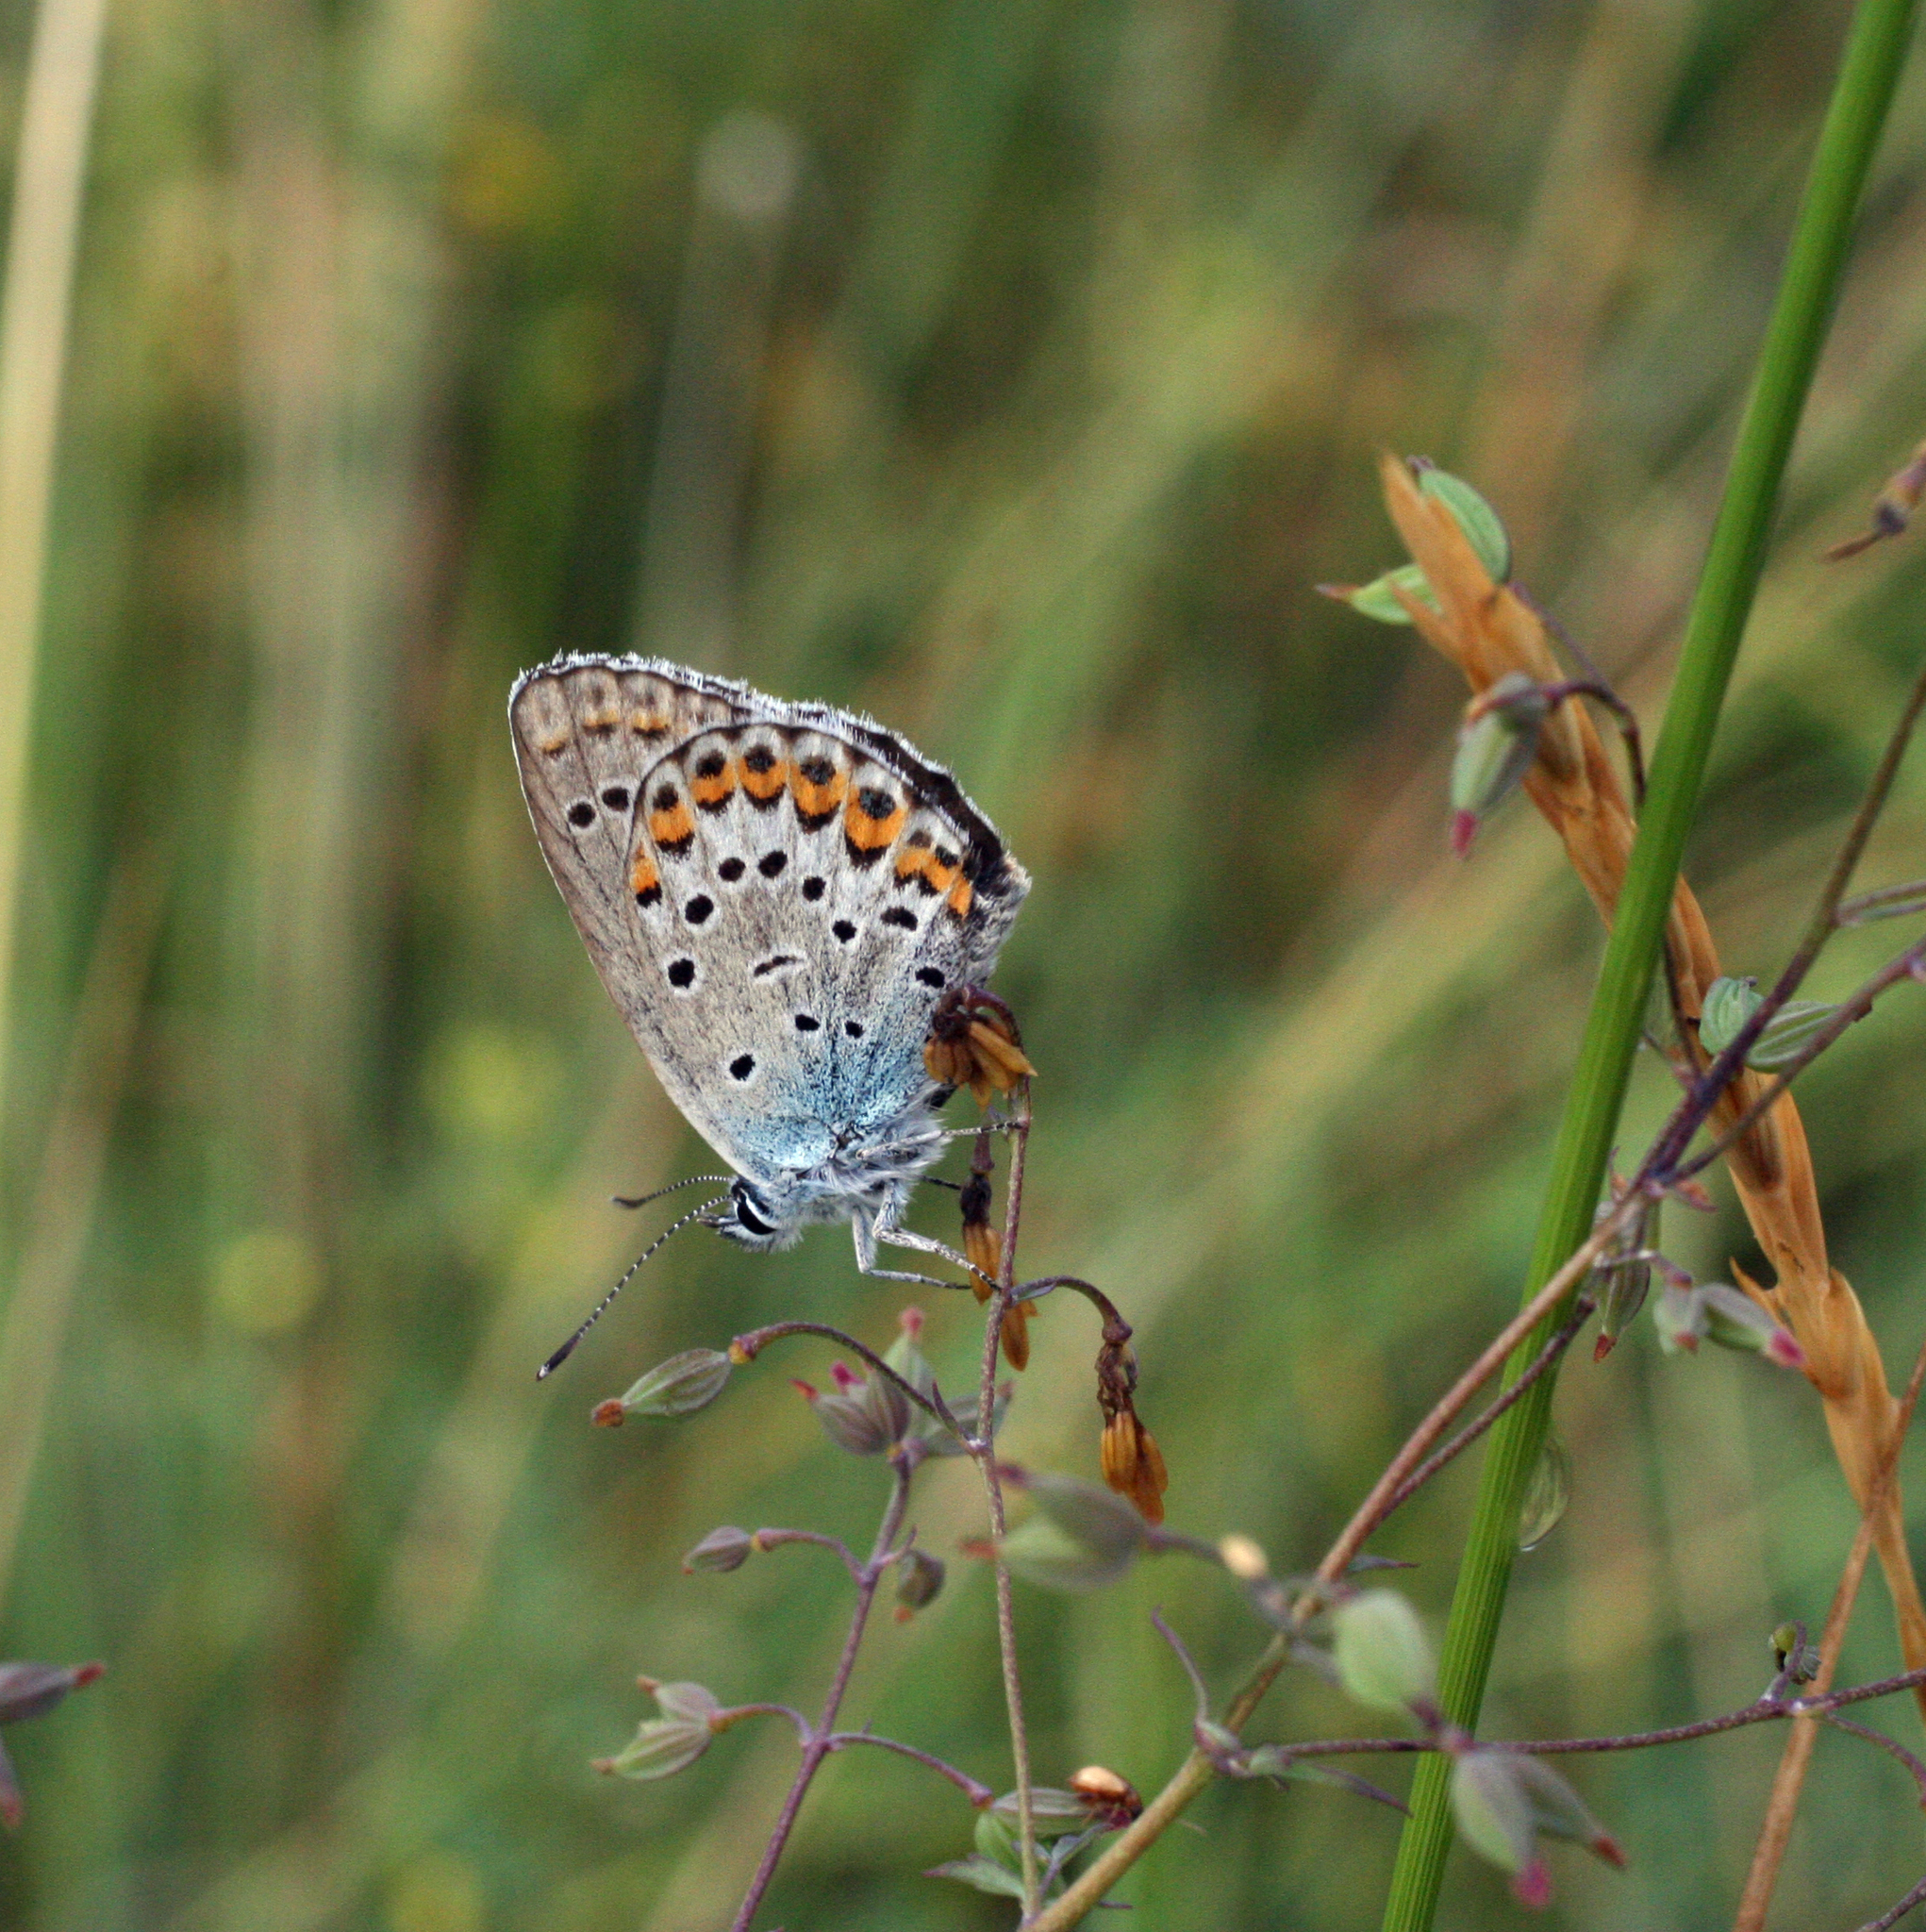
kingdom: Animalia
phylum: Arthropoda
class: Insecta
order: Lepidoptera
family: Lycaenidae
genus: Plebejus
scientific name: Plebejus argyrognomon
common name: Reverdin's blue
